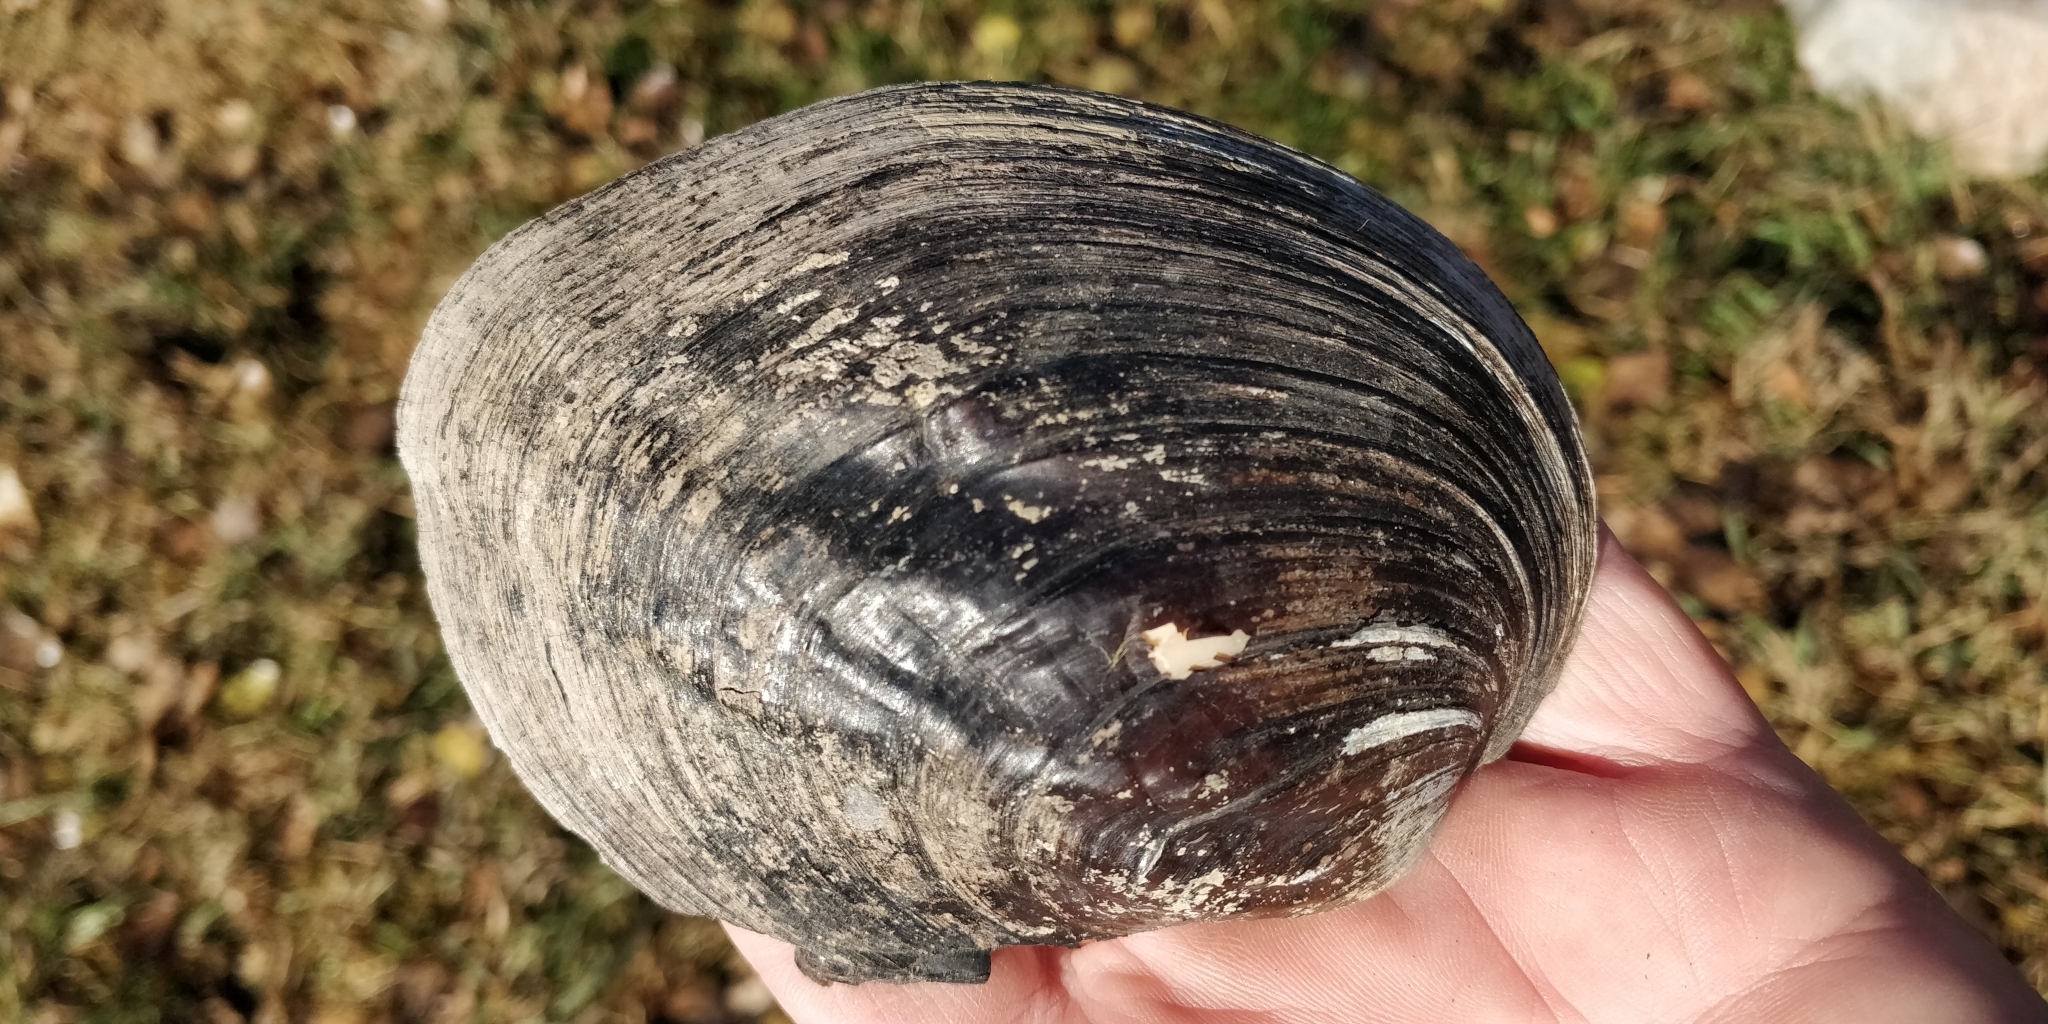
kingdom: Animalia
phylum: Mollusca
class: Bivalvia
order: Unionida
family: Unionidae
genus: Amblema
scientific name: Amblema plicata
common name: Threeridge
